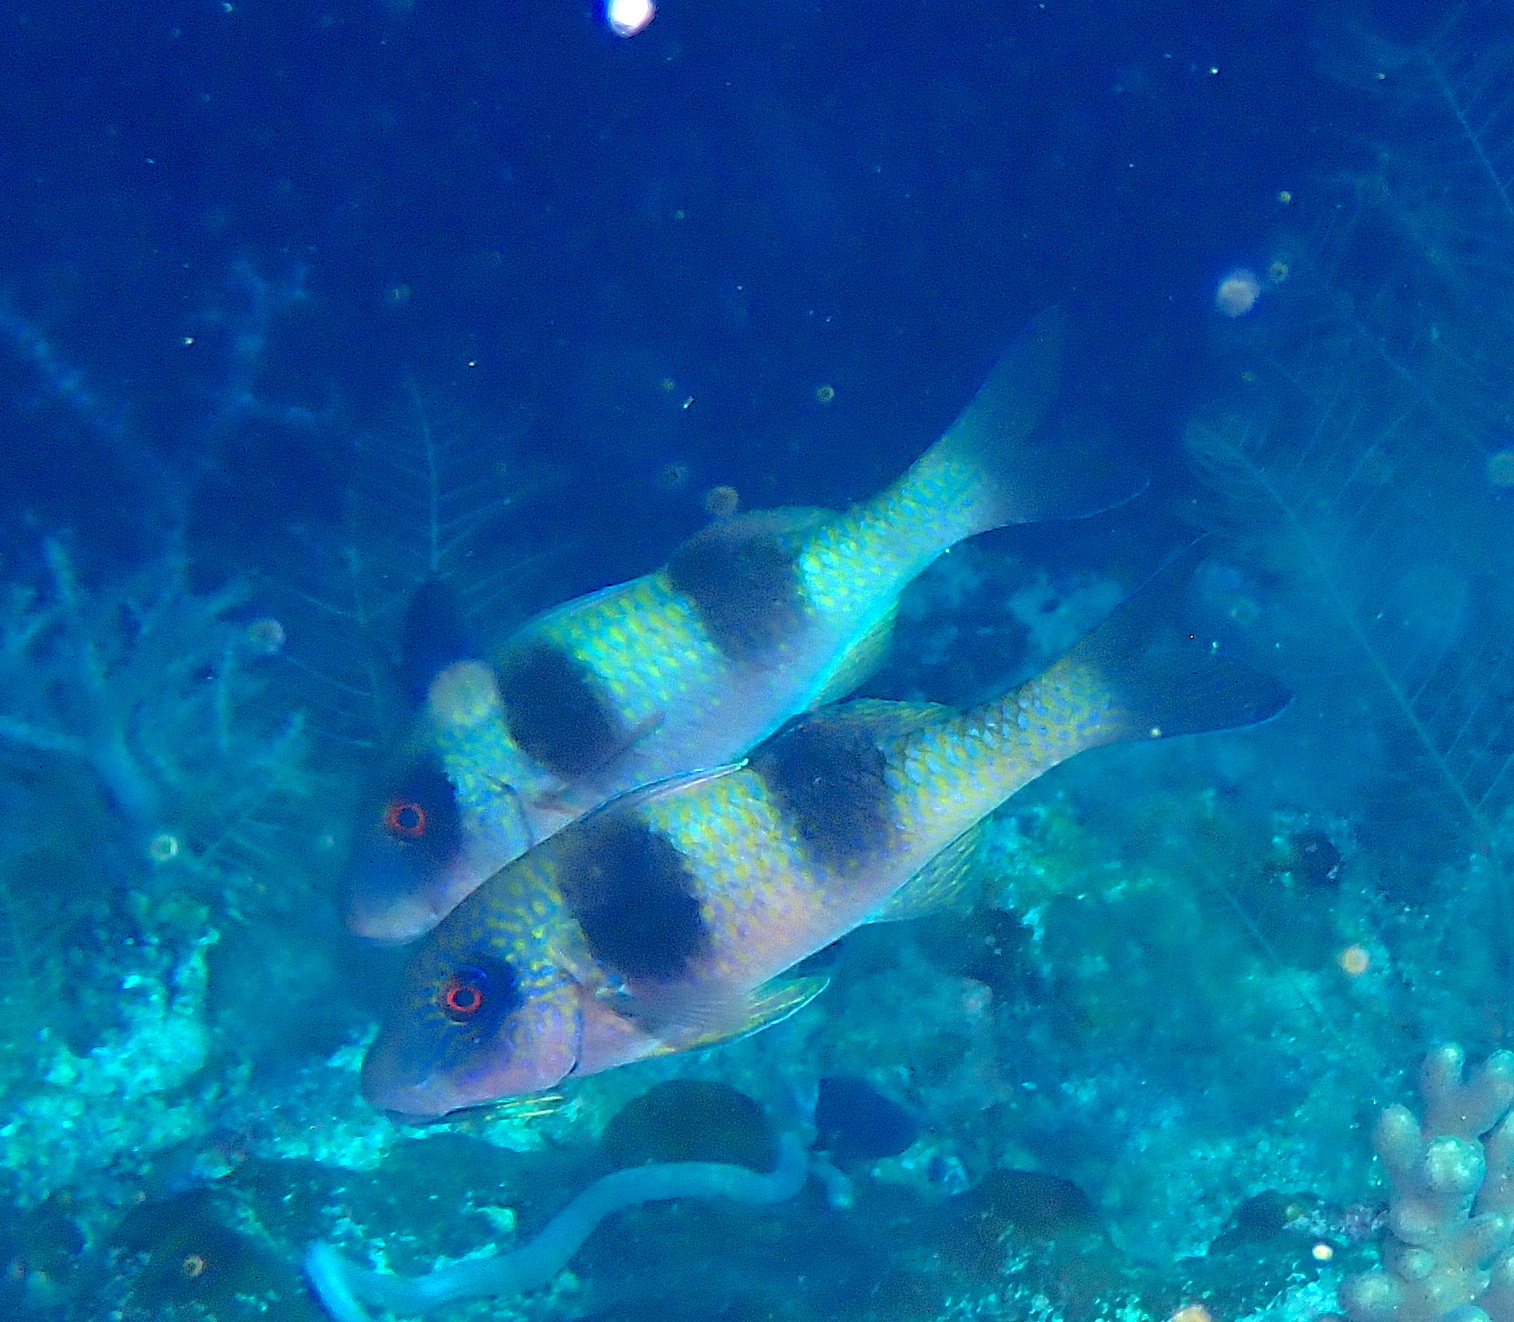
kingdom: Animalia
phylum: Chordata
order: Perciformes
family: Mullidae
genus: Parupeneus
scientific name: Parupeneus crassilabris
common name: Doublebar goatfish
